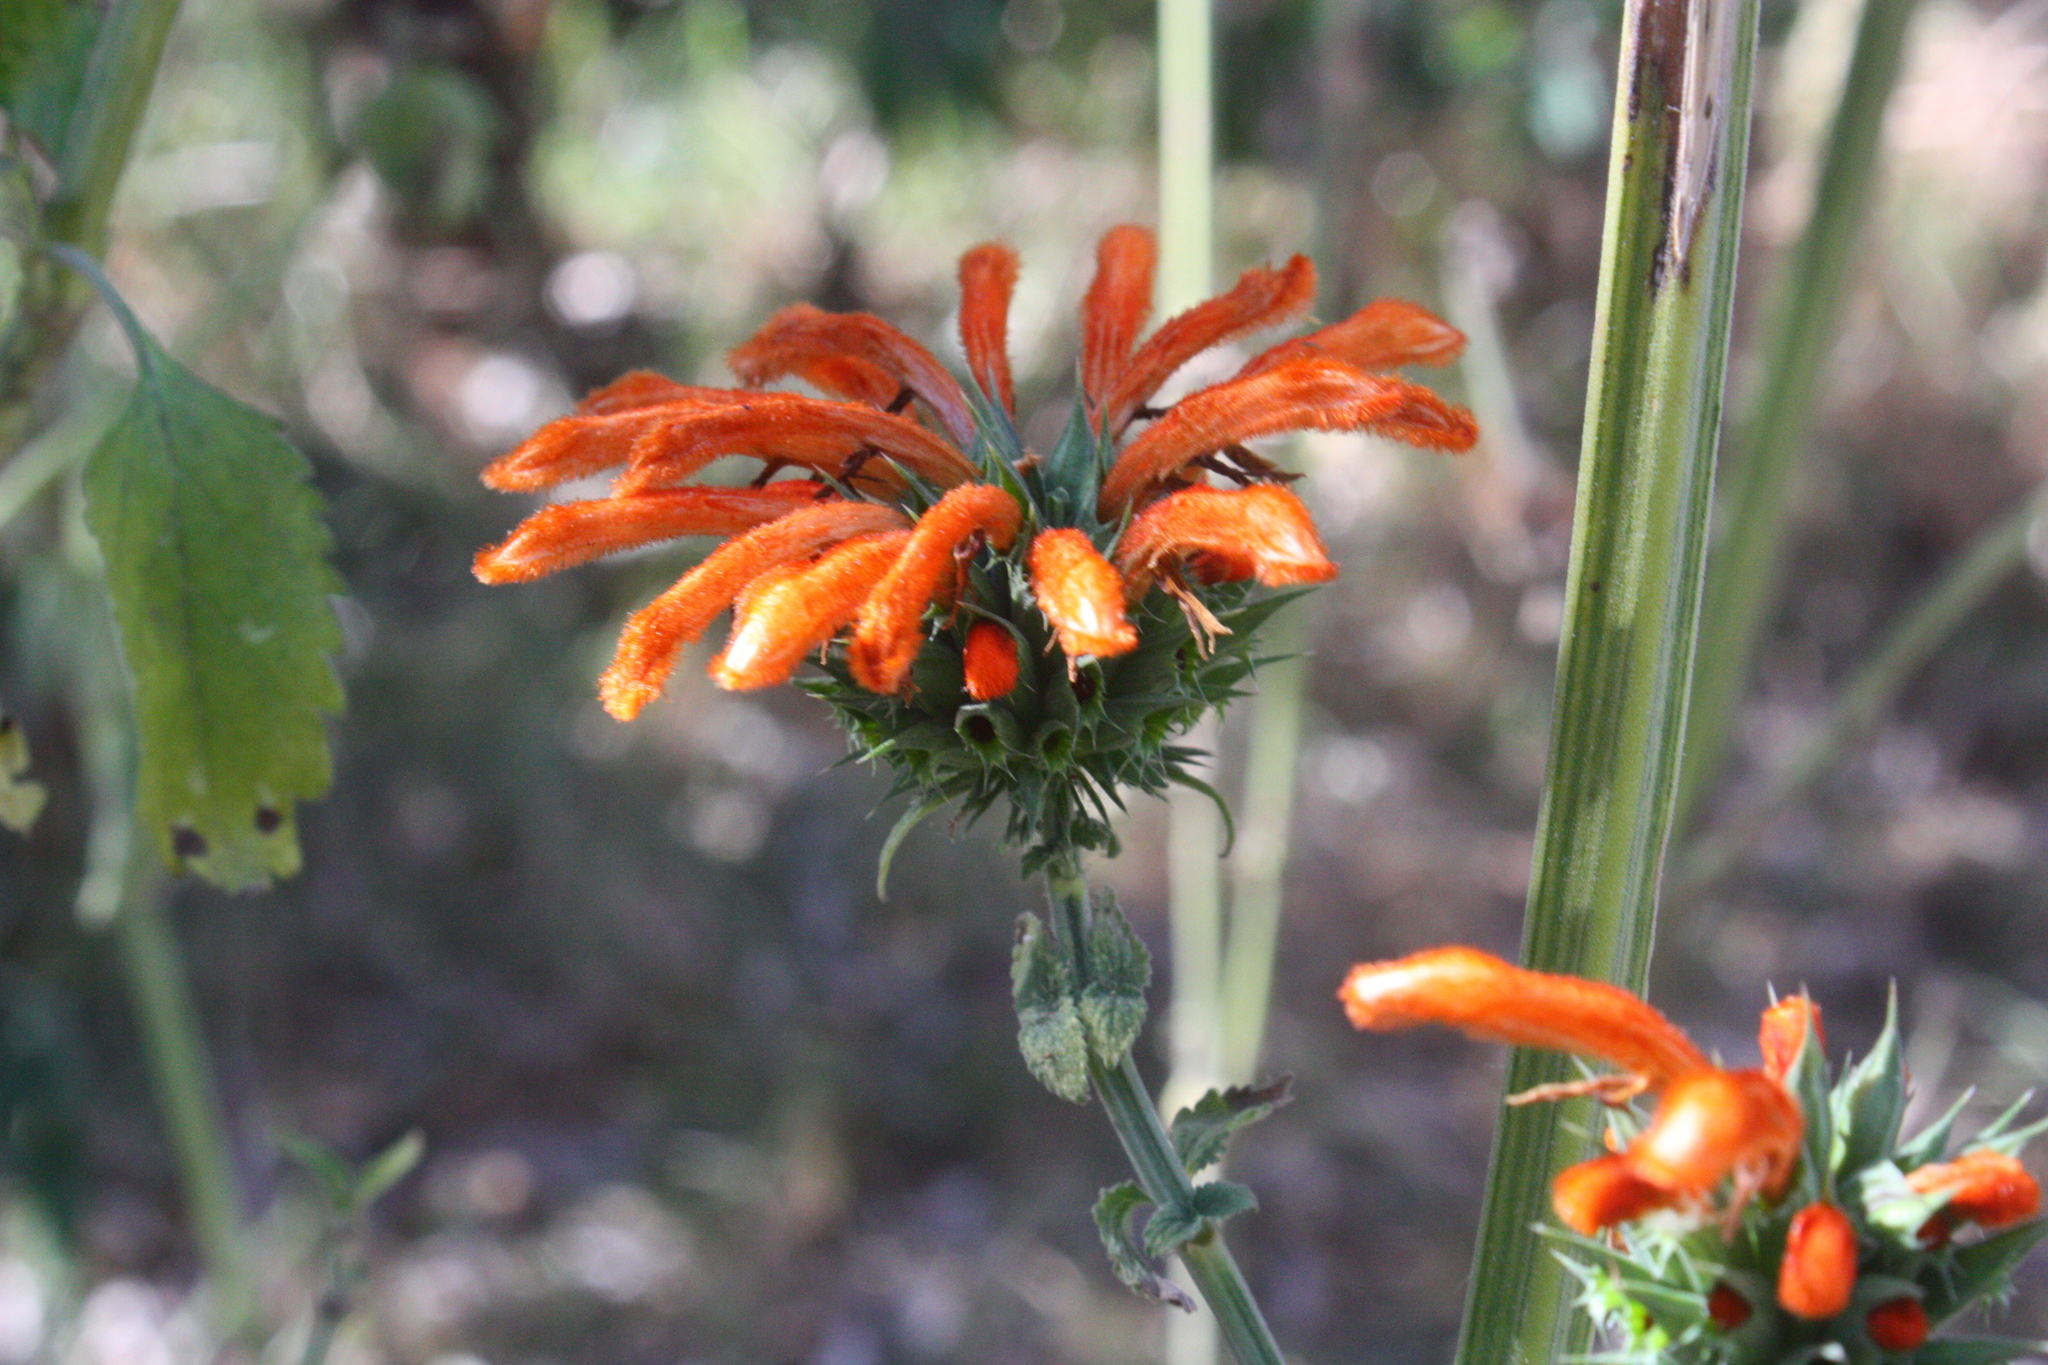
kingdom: Plantae
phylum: Tracheophyta
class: Magnoliopsida
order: Lamiales
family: Lamiaceae
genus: Leonotis
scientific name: Leonotis nepetifolia
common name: Christmas candlestick
